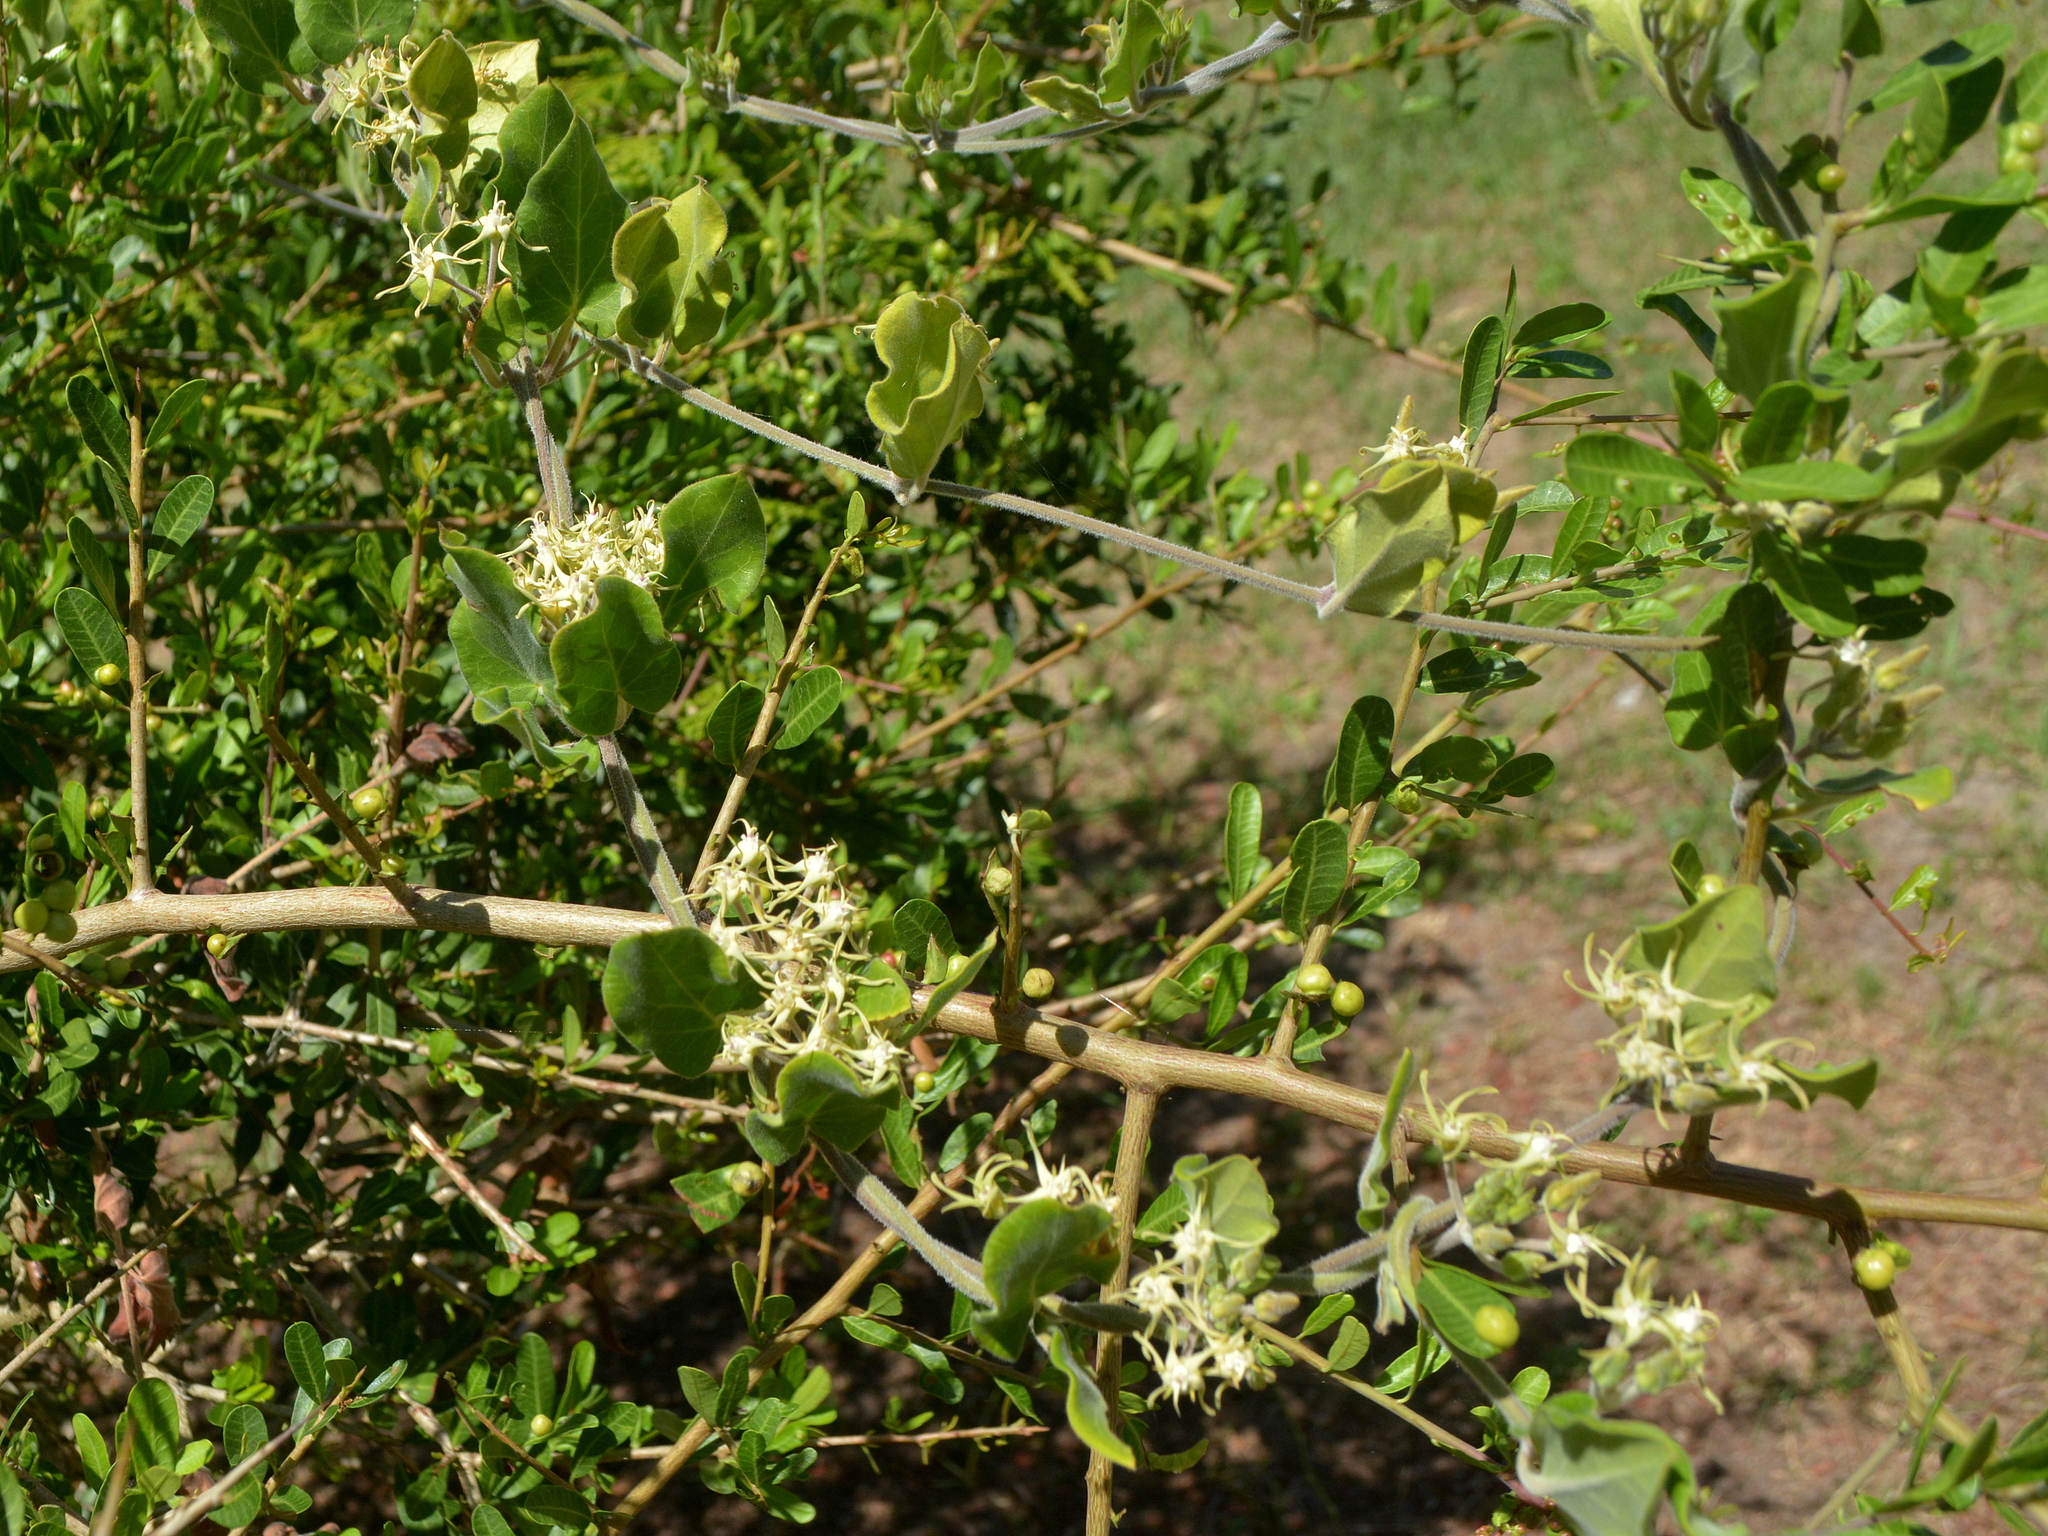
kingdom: Plantae
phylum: Tracheophyta
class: Magnoliopsida
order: Gentianales
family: Apocynaceae
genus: Oxypetalum
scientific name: Oxypetalum tomentosum
